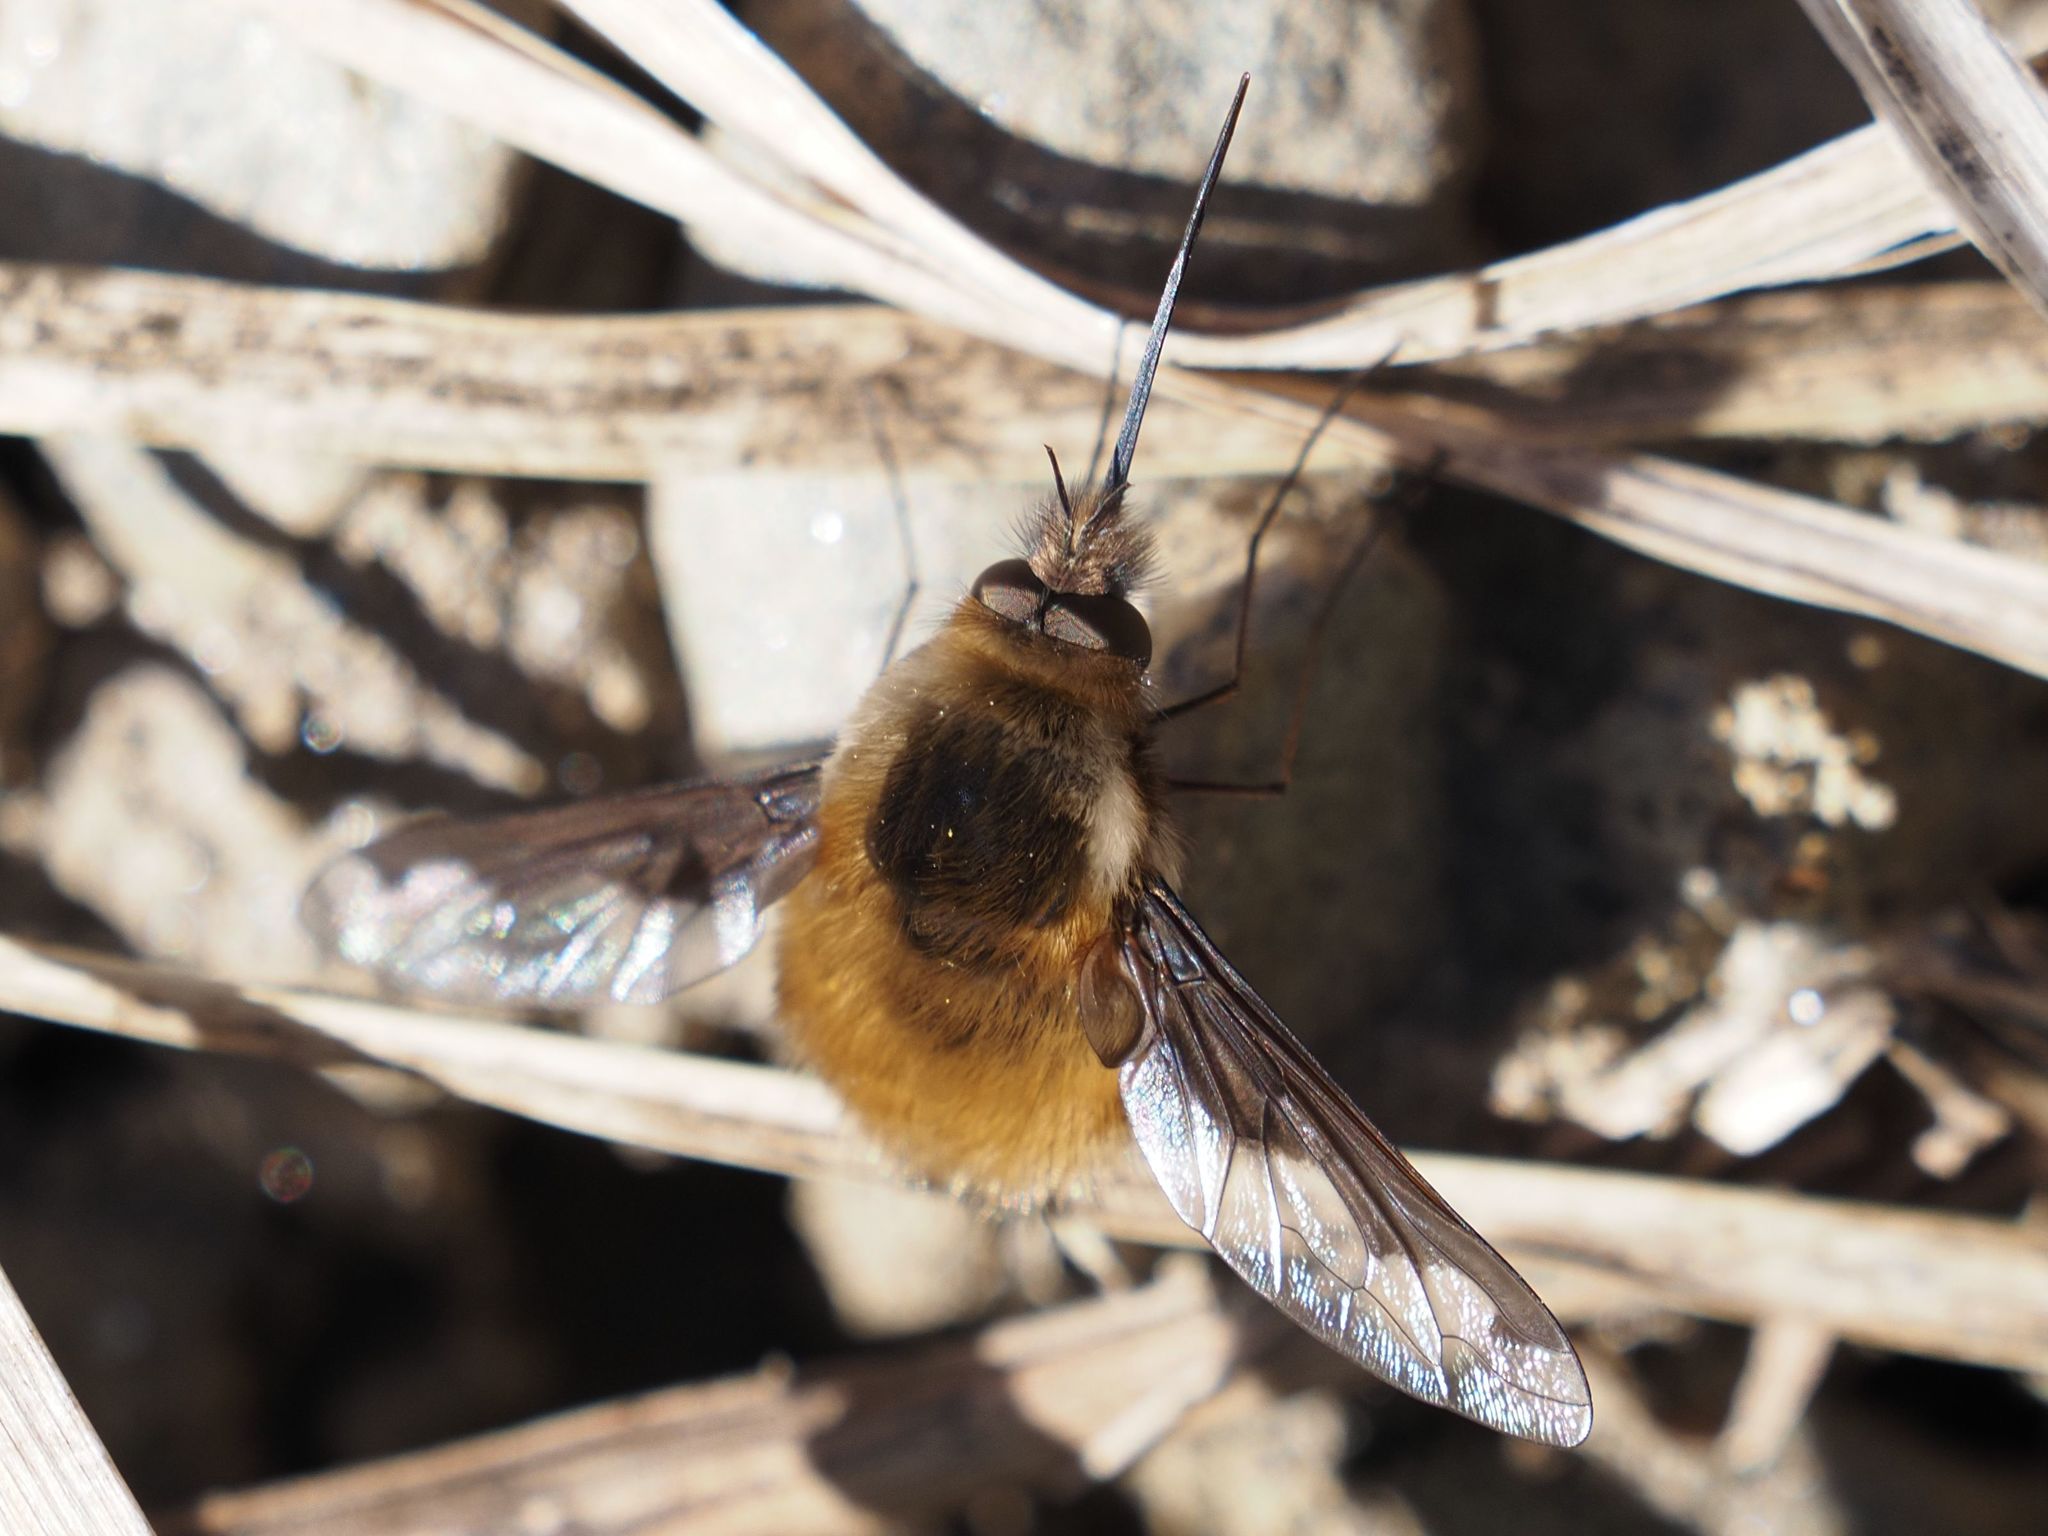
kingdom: Animalia
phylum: Arthropoda
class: Insecta
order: Diptera
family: Bombyliidae
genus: Bombylius
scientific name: Bombylius major
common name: Bee fly
